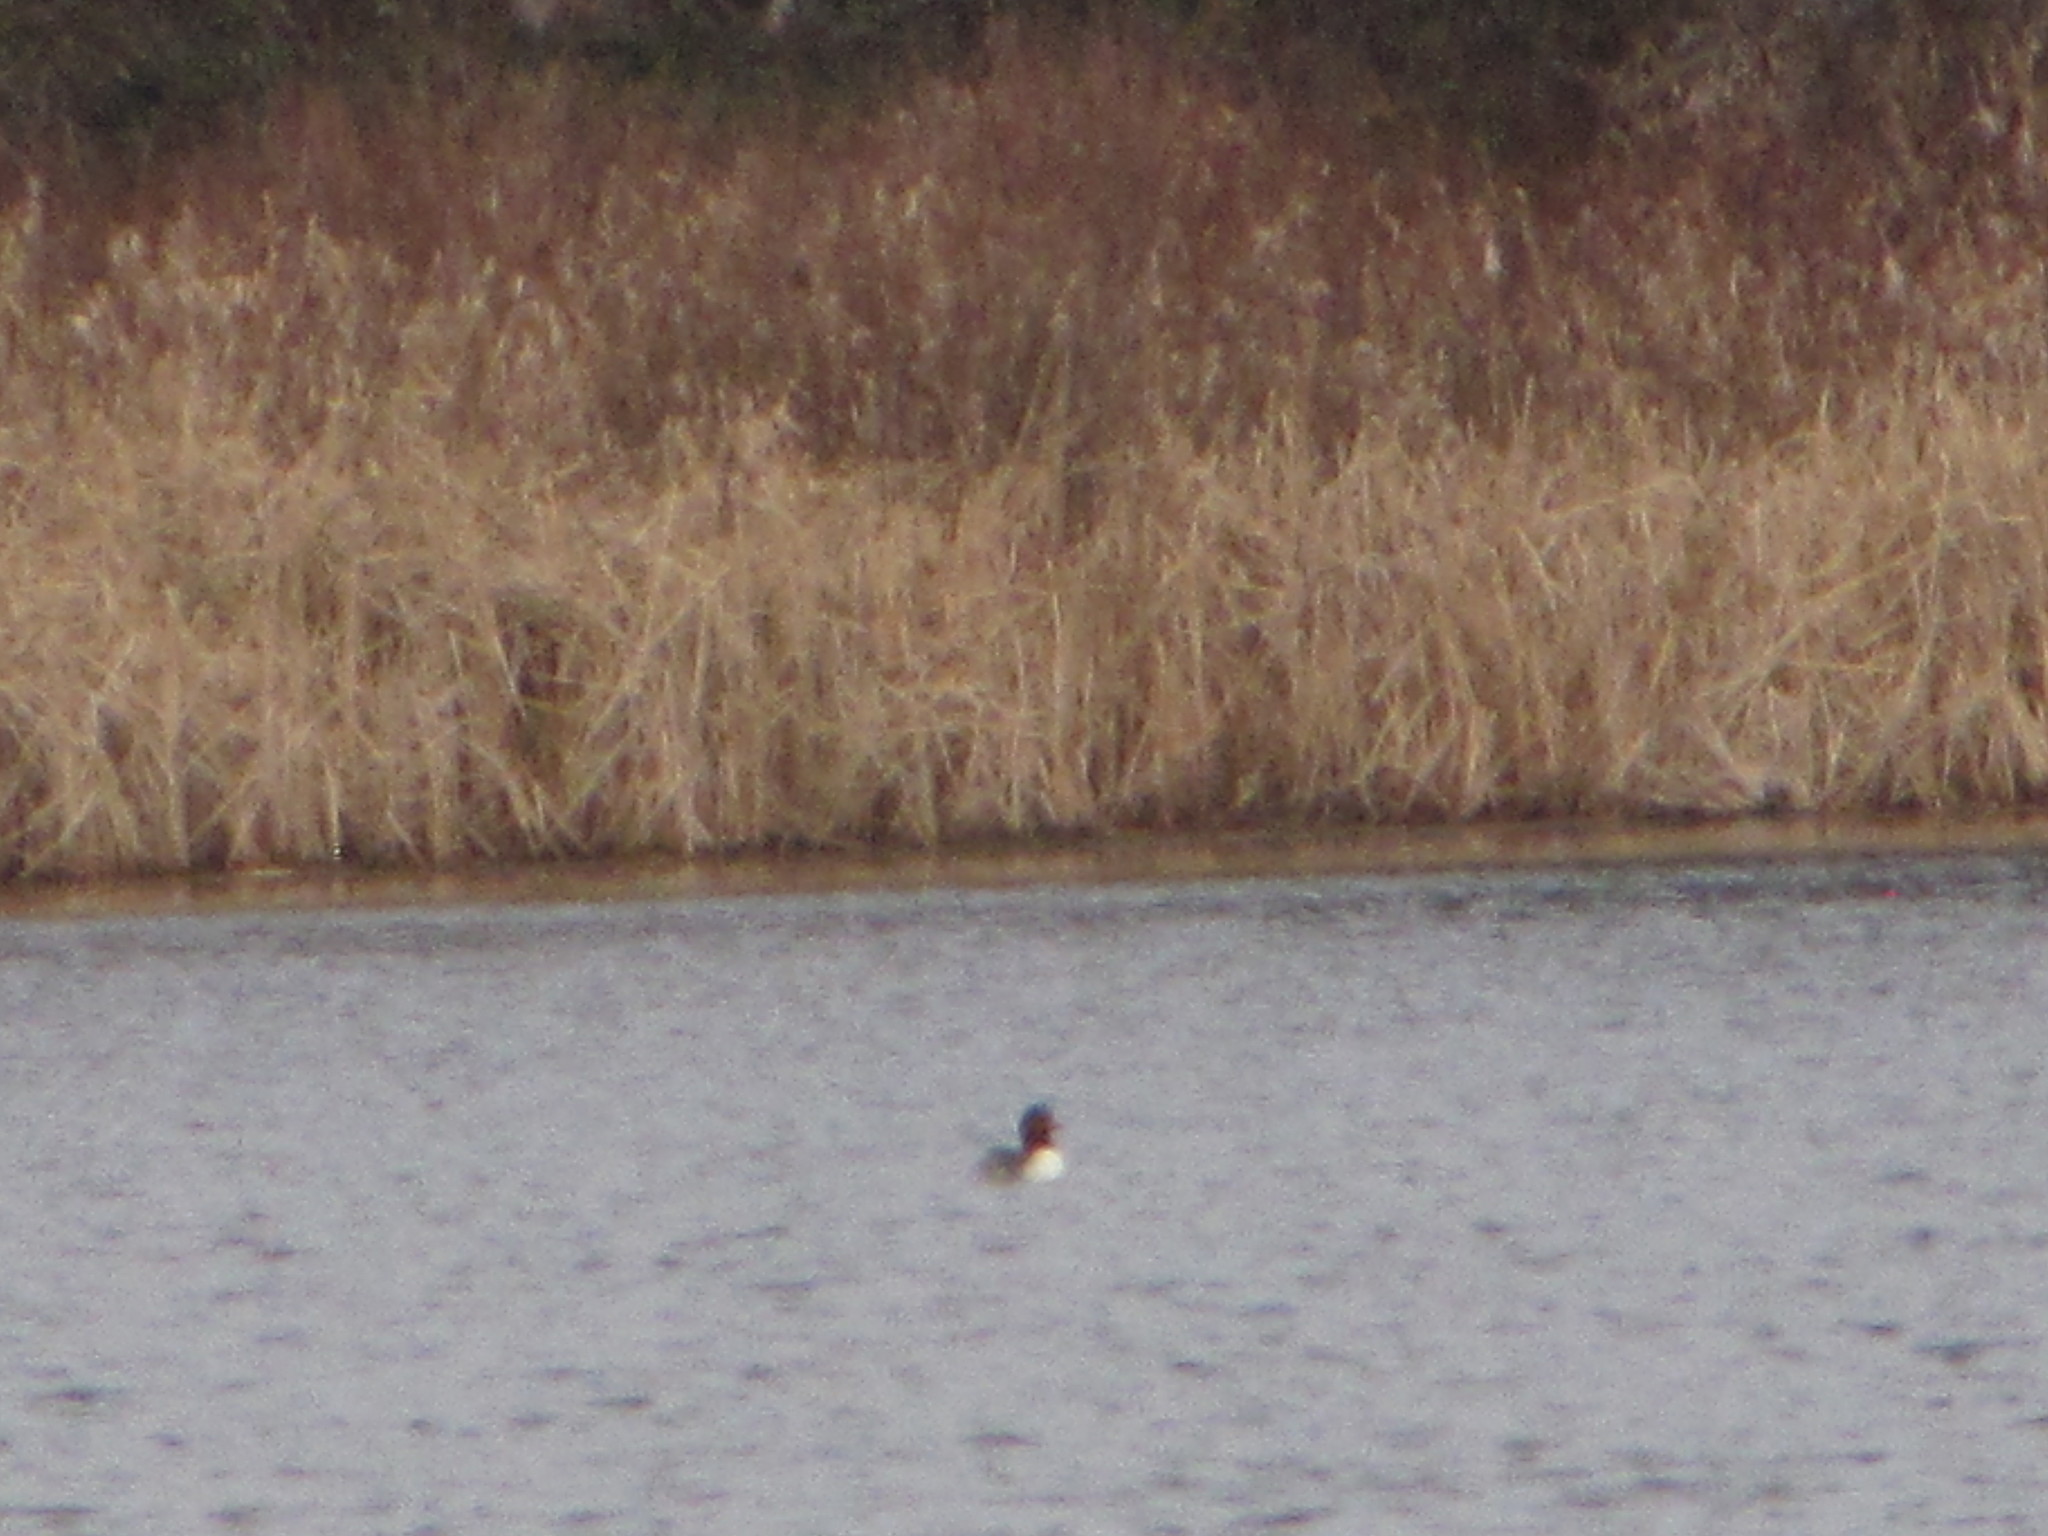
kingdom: Animalia
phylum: Chordata
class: Aves
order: Anseriformes
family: Anatidae
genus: Mergus
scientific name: Mergus merganser
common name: Common merganser
